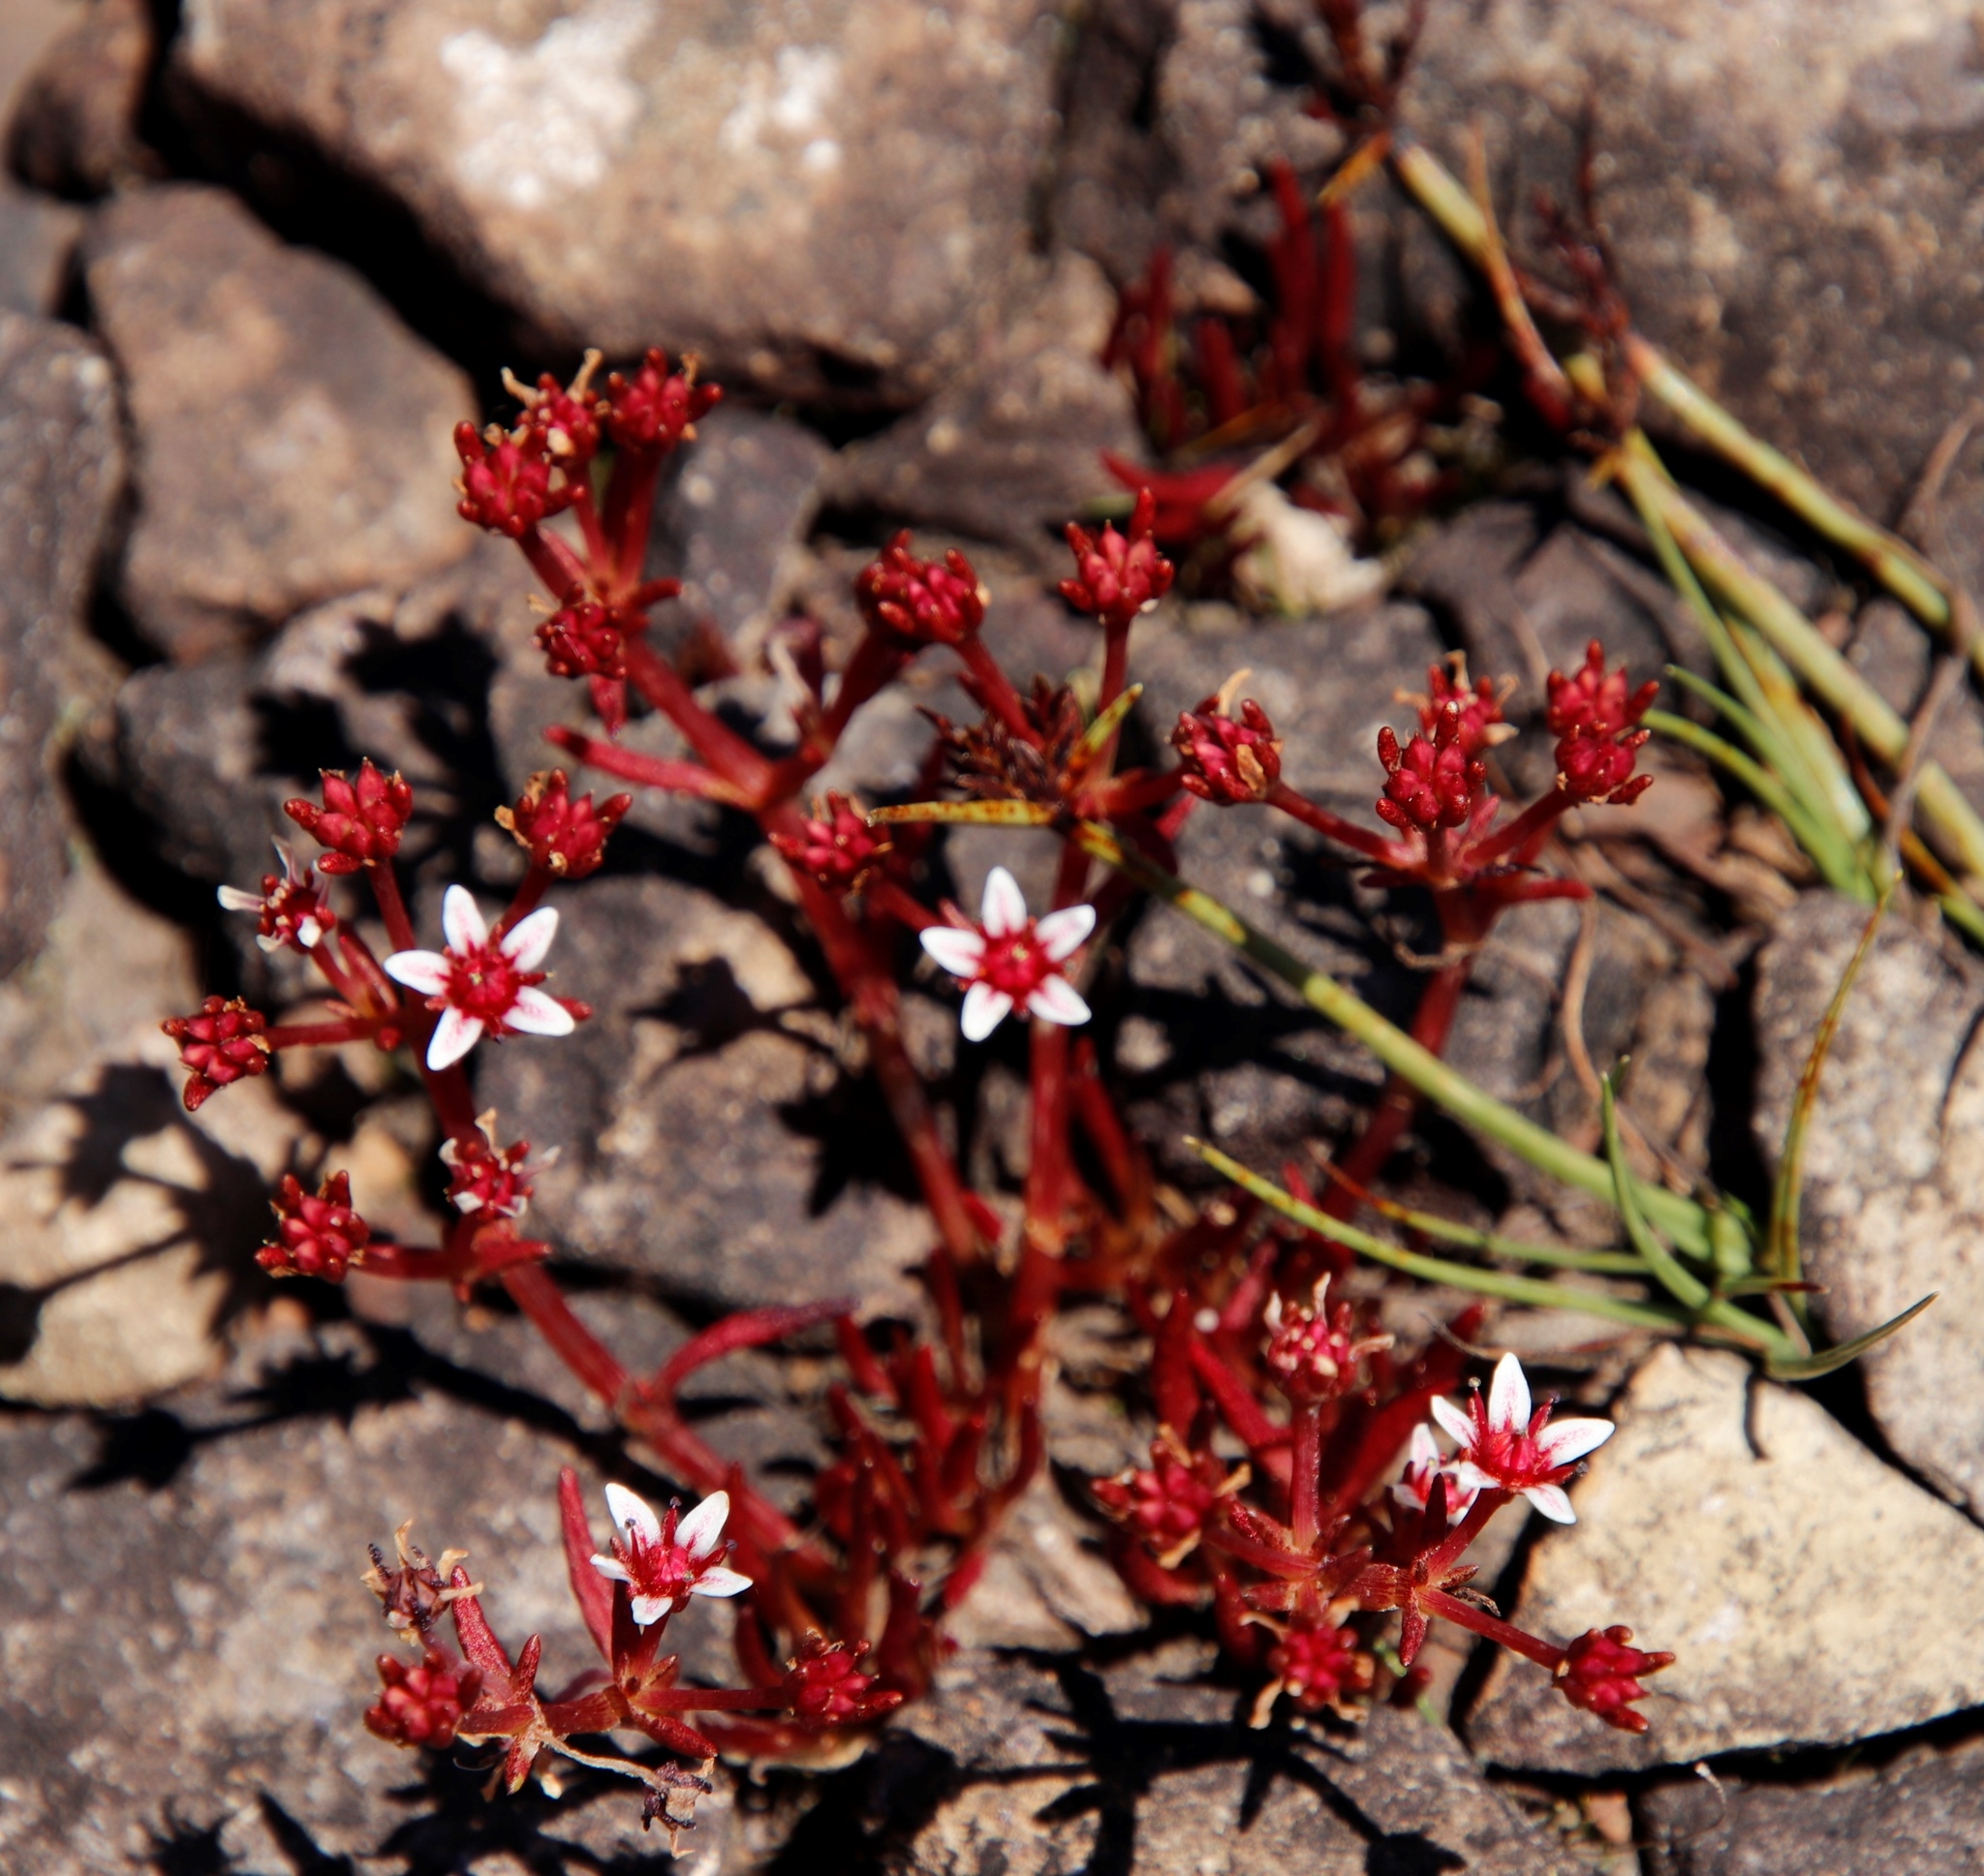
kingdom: Plantae
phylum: Tracheophyta
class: Magnoliopsida
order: Saxifragales
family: Crassulaceae
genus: Crassula
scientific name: Crassula peploides
